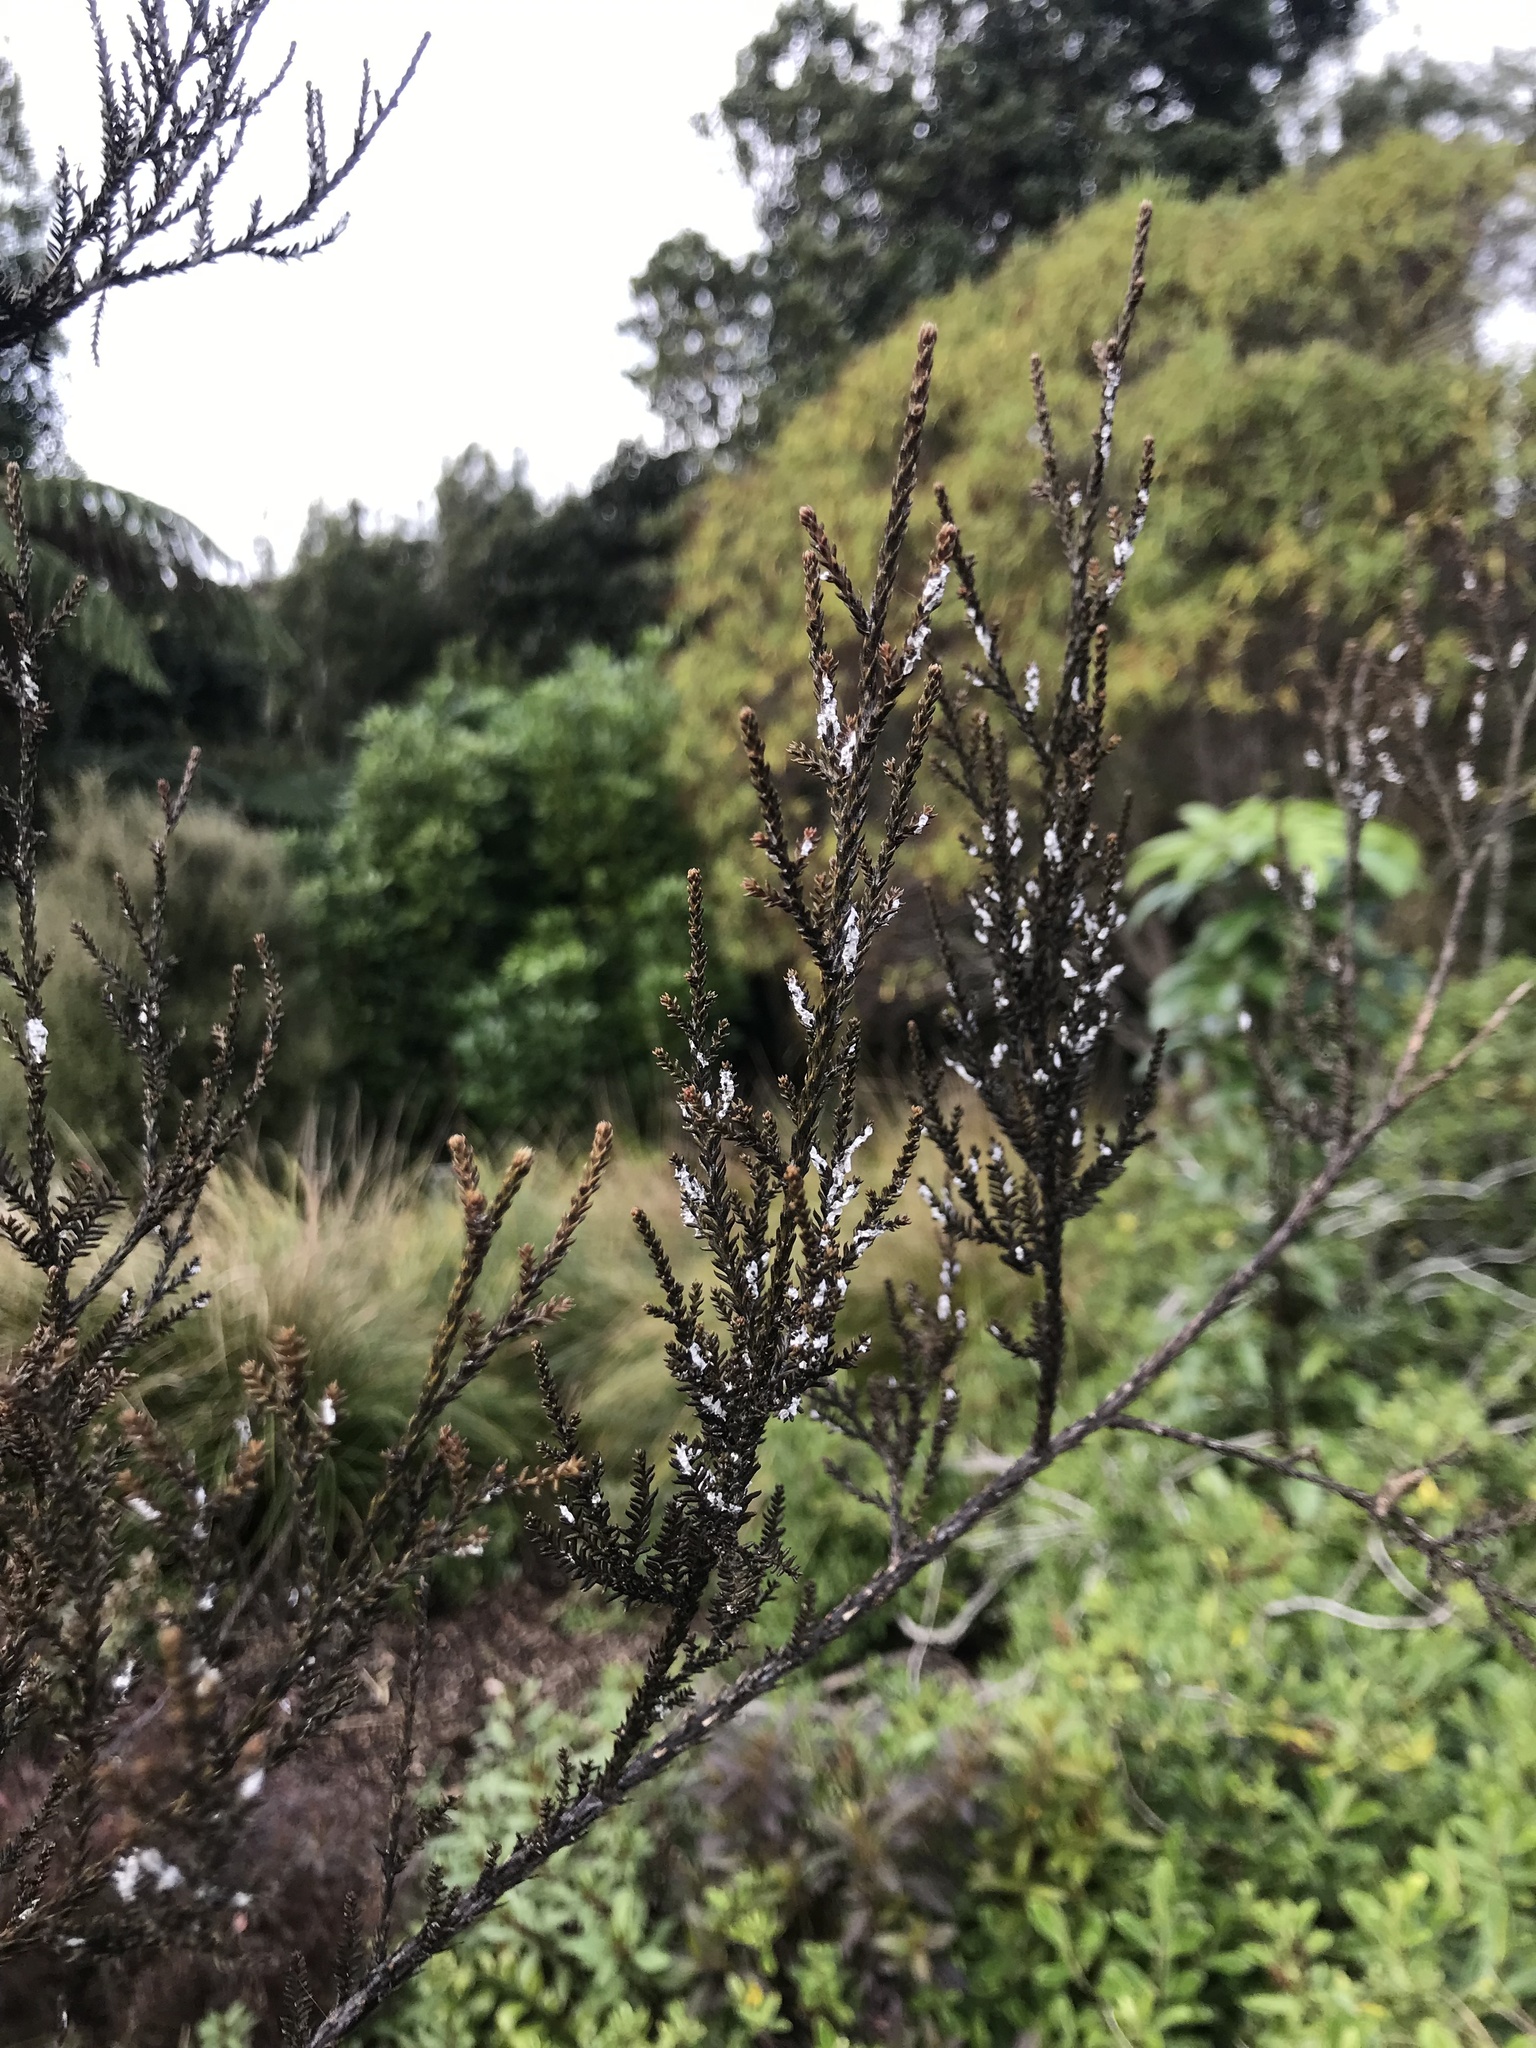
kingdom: Animalia
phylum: Arthropoda
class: Insecta
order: Hemiptera
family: Pseudococcidae
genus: Paraferrisia
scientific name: Paraferrisia podocarpi
